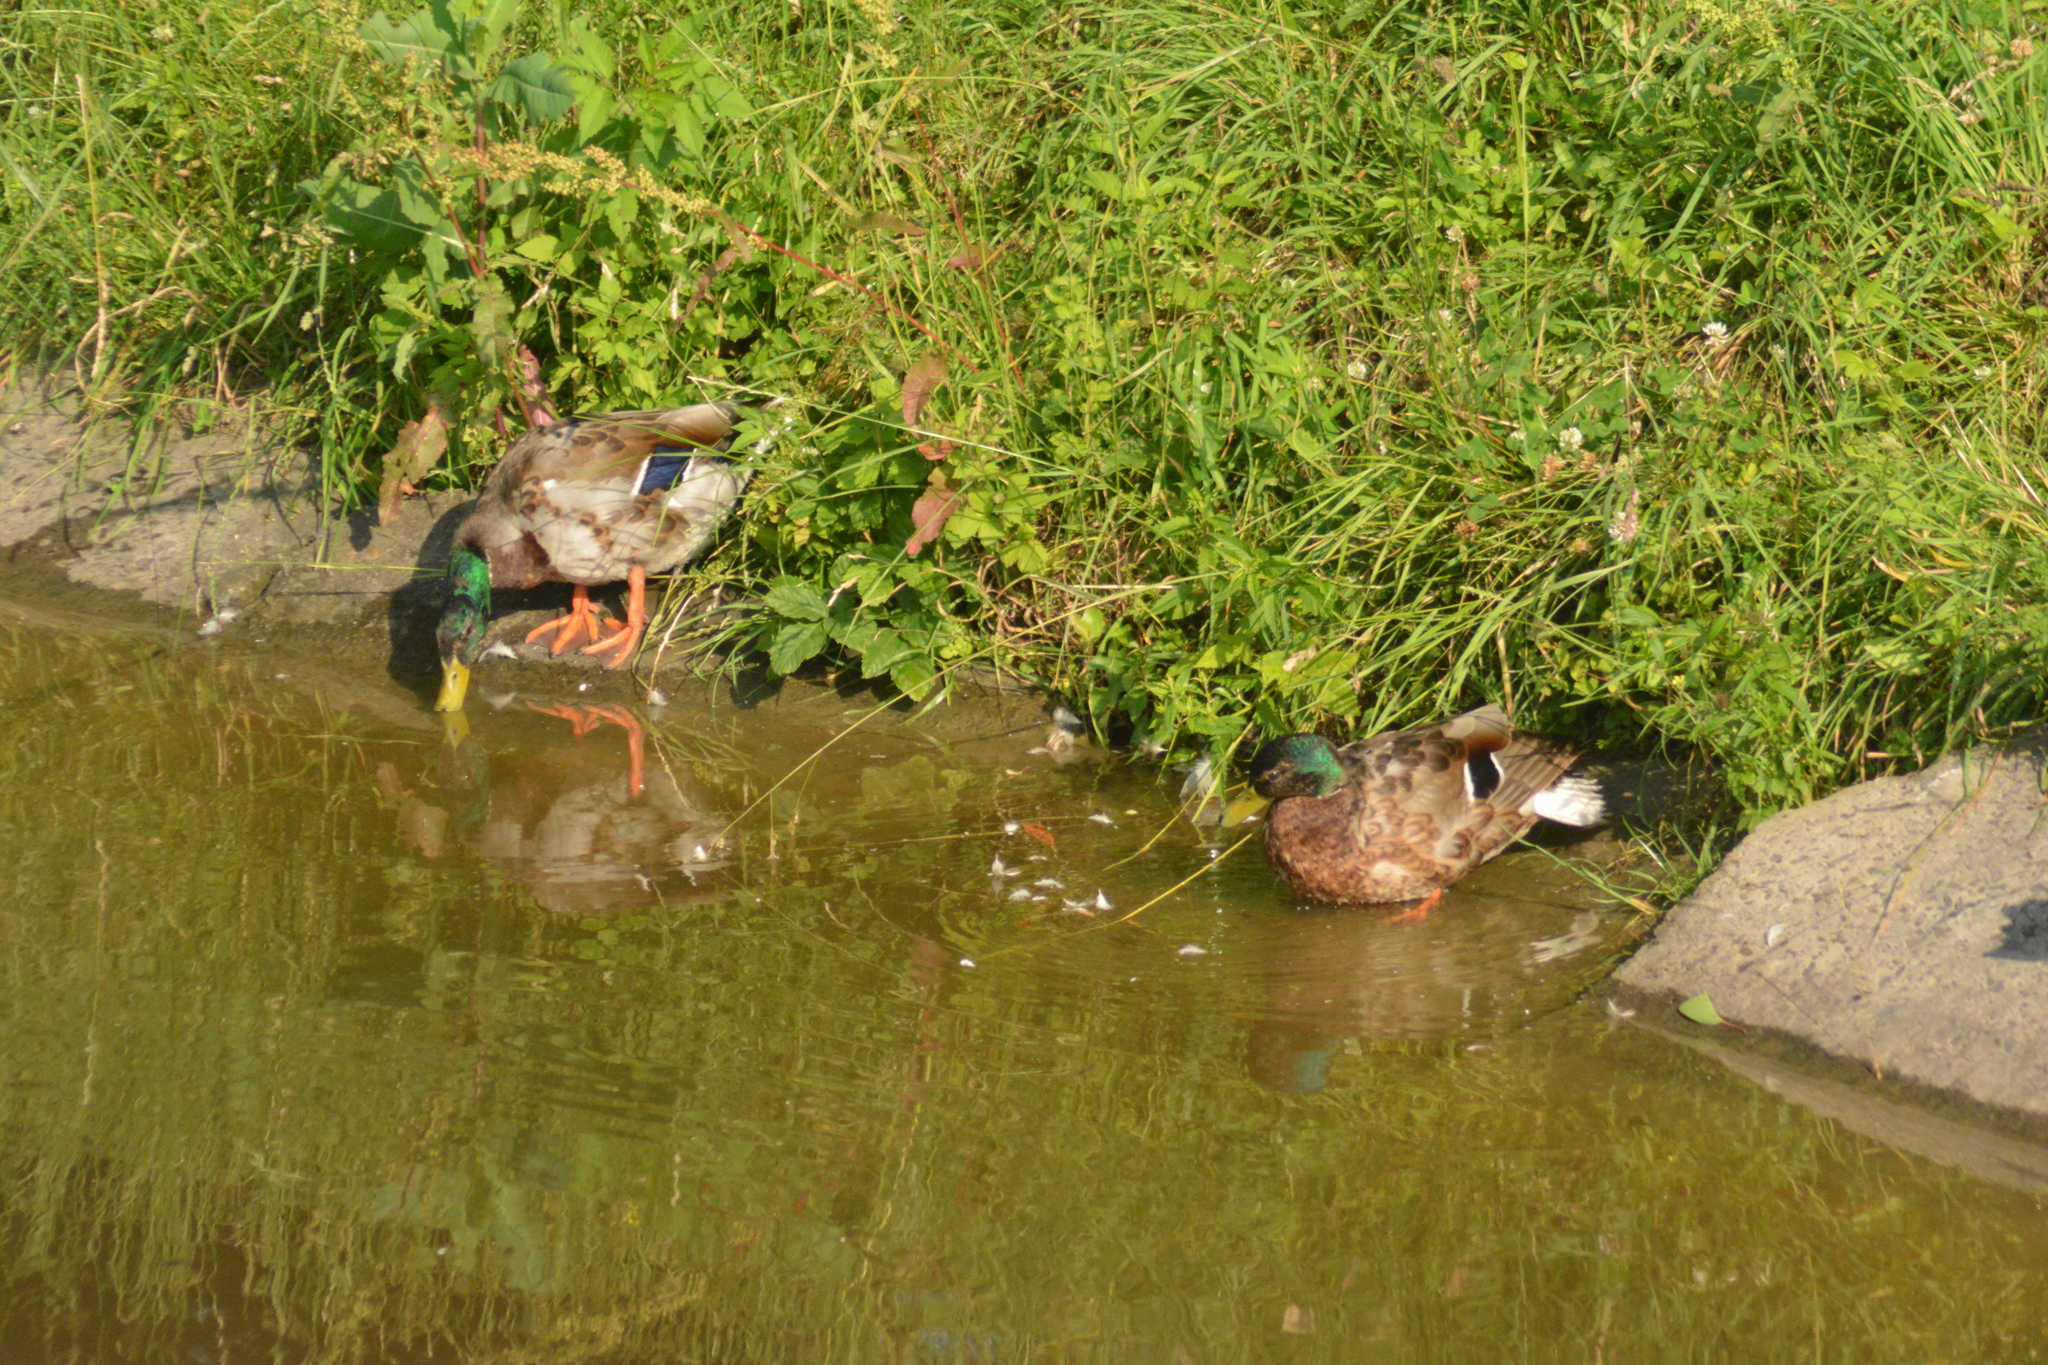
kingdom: Animalia
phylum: Chordata
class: Aves
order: Anseriformes
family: Anatidae
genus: Anas
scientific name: Anas platyrhynchos
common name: Mallard
